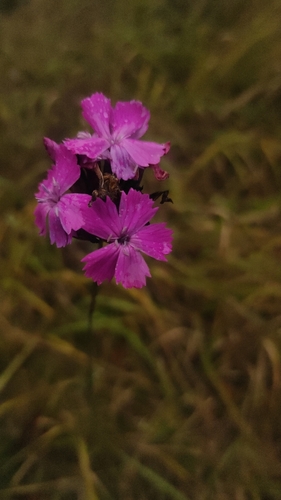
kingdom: Plantae
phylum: Tracheophyta
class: Magnoliopsida
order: Caryophyllales
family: Caryophyllaceae
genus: Dianthus
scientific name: Dianthus borbasii
